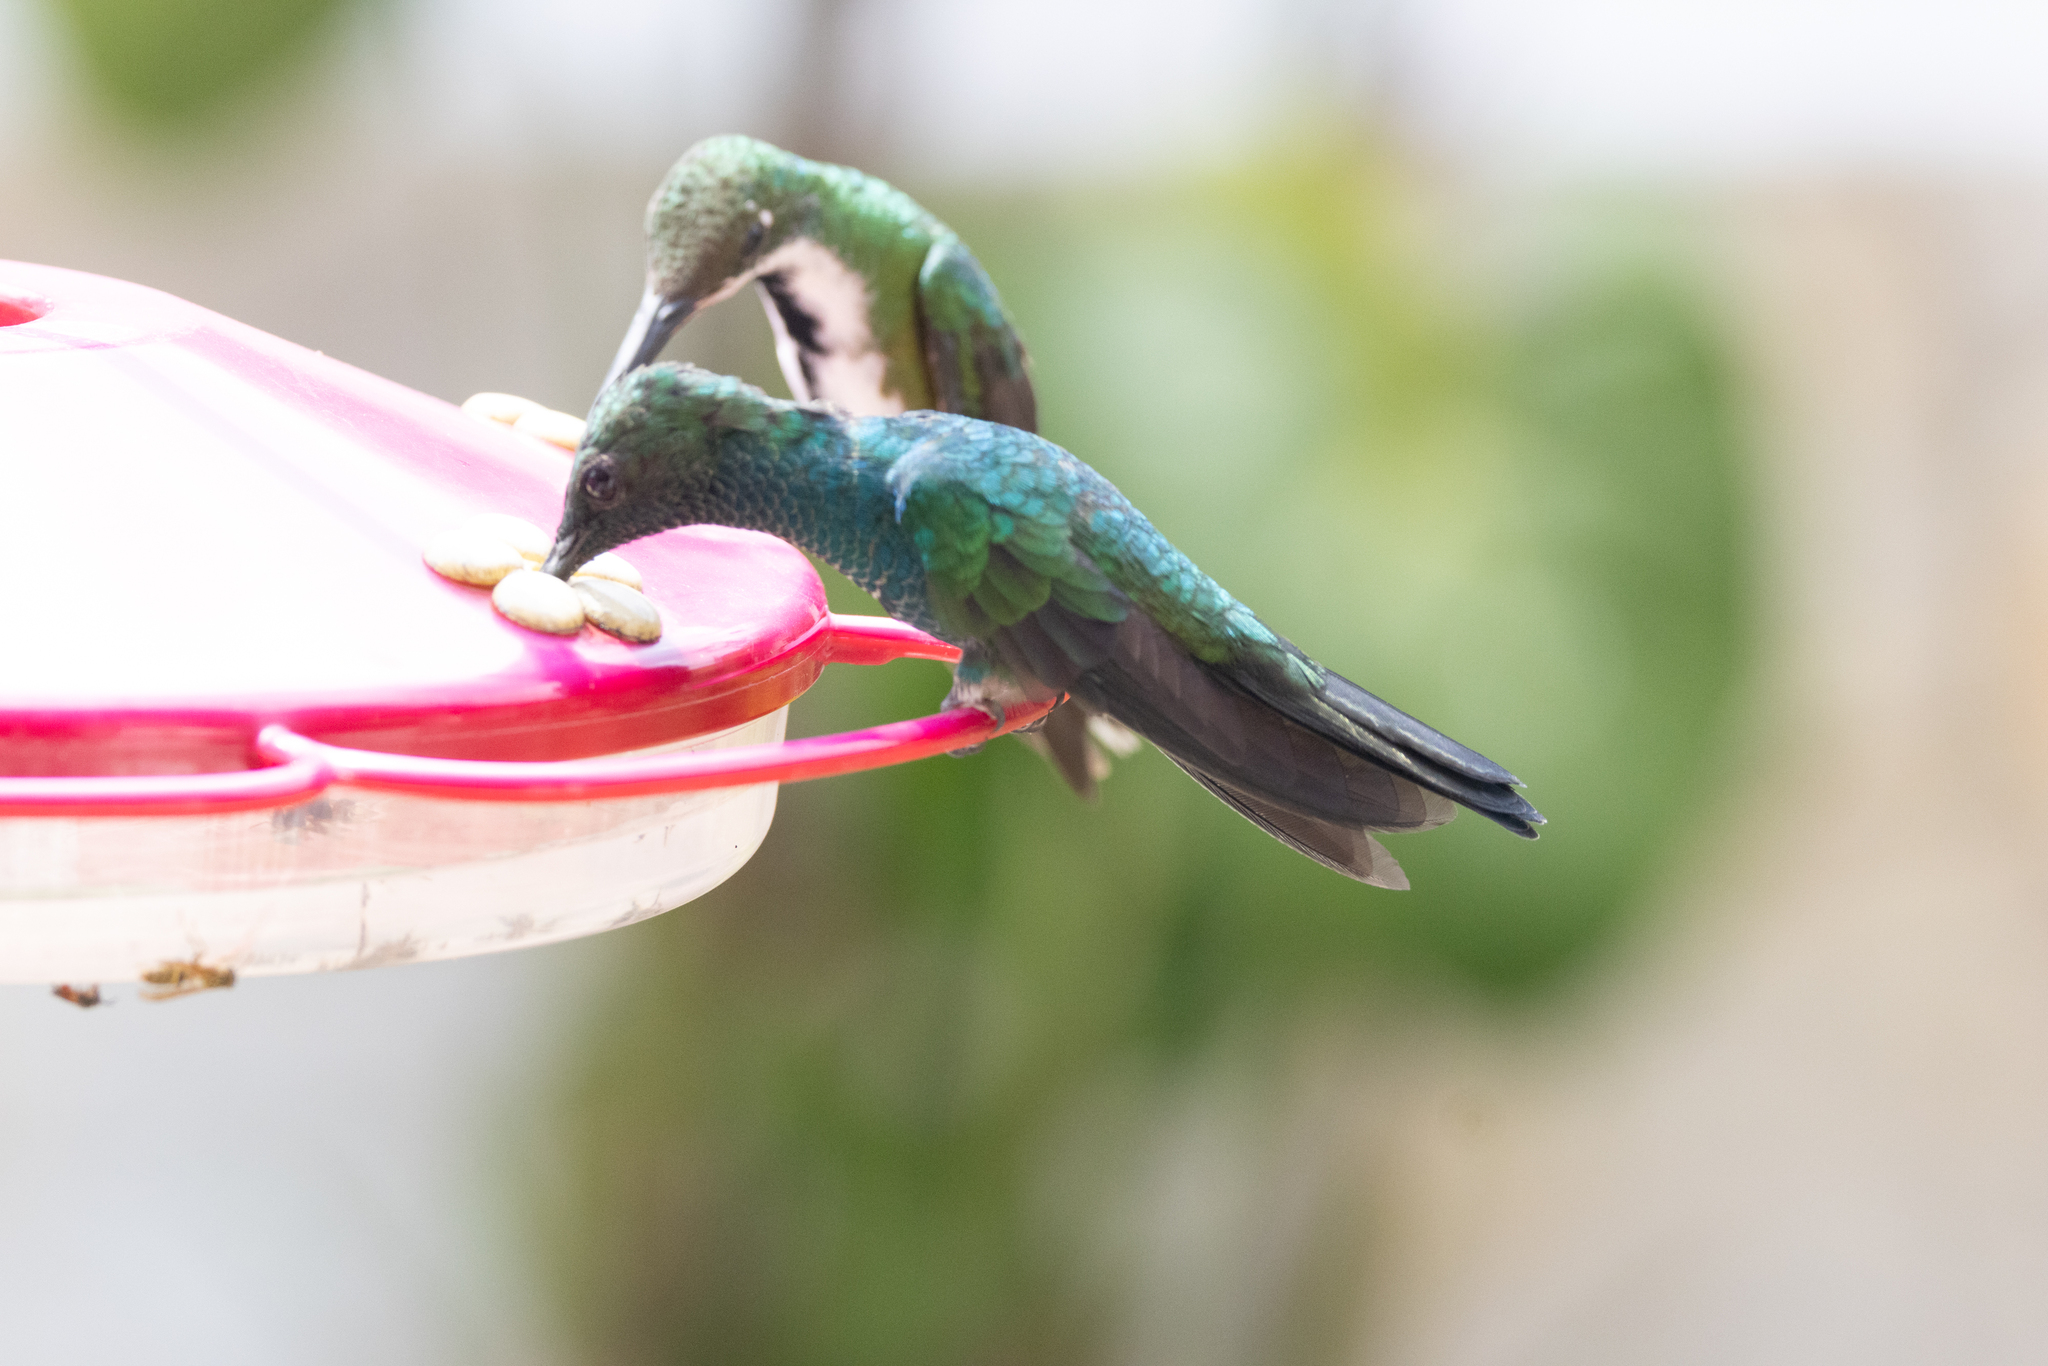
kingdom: Animalia
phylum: Chordata
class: Aves
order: Apodiformes
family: Trochilidae
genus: Chalybura
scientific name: Chalybura buffonii
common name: White-vented plumeleteer
